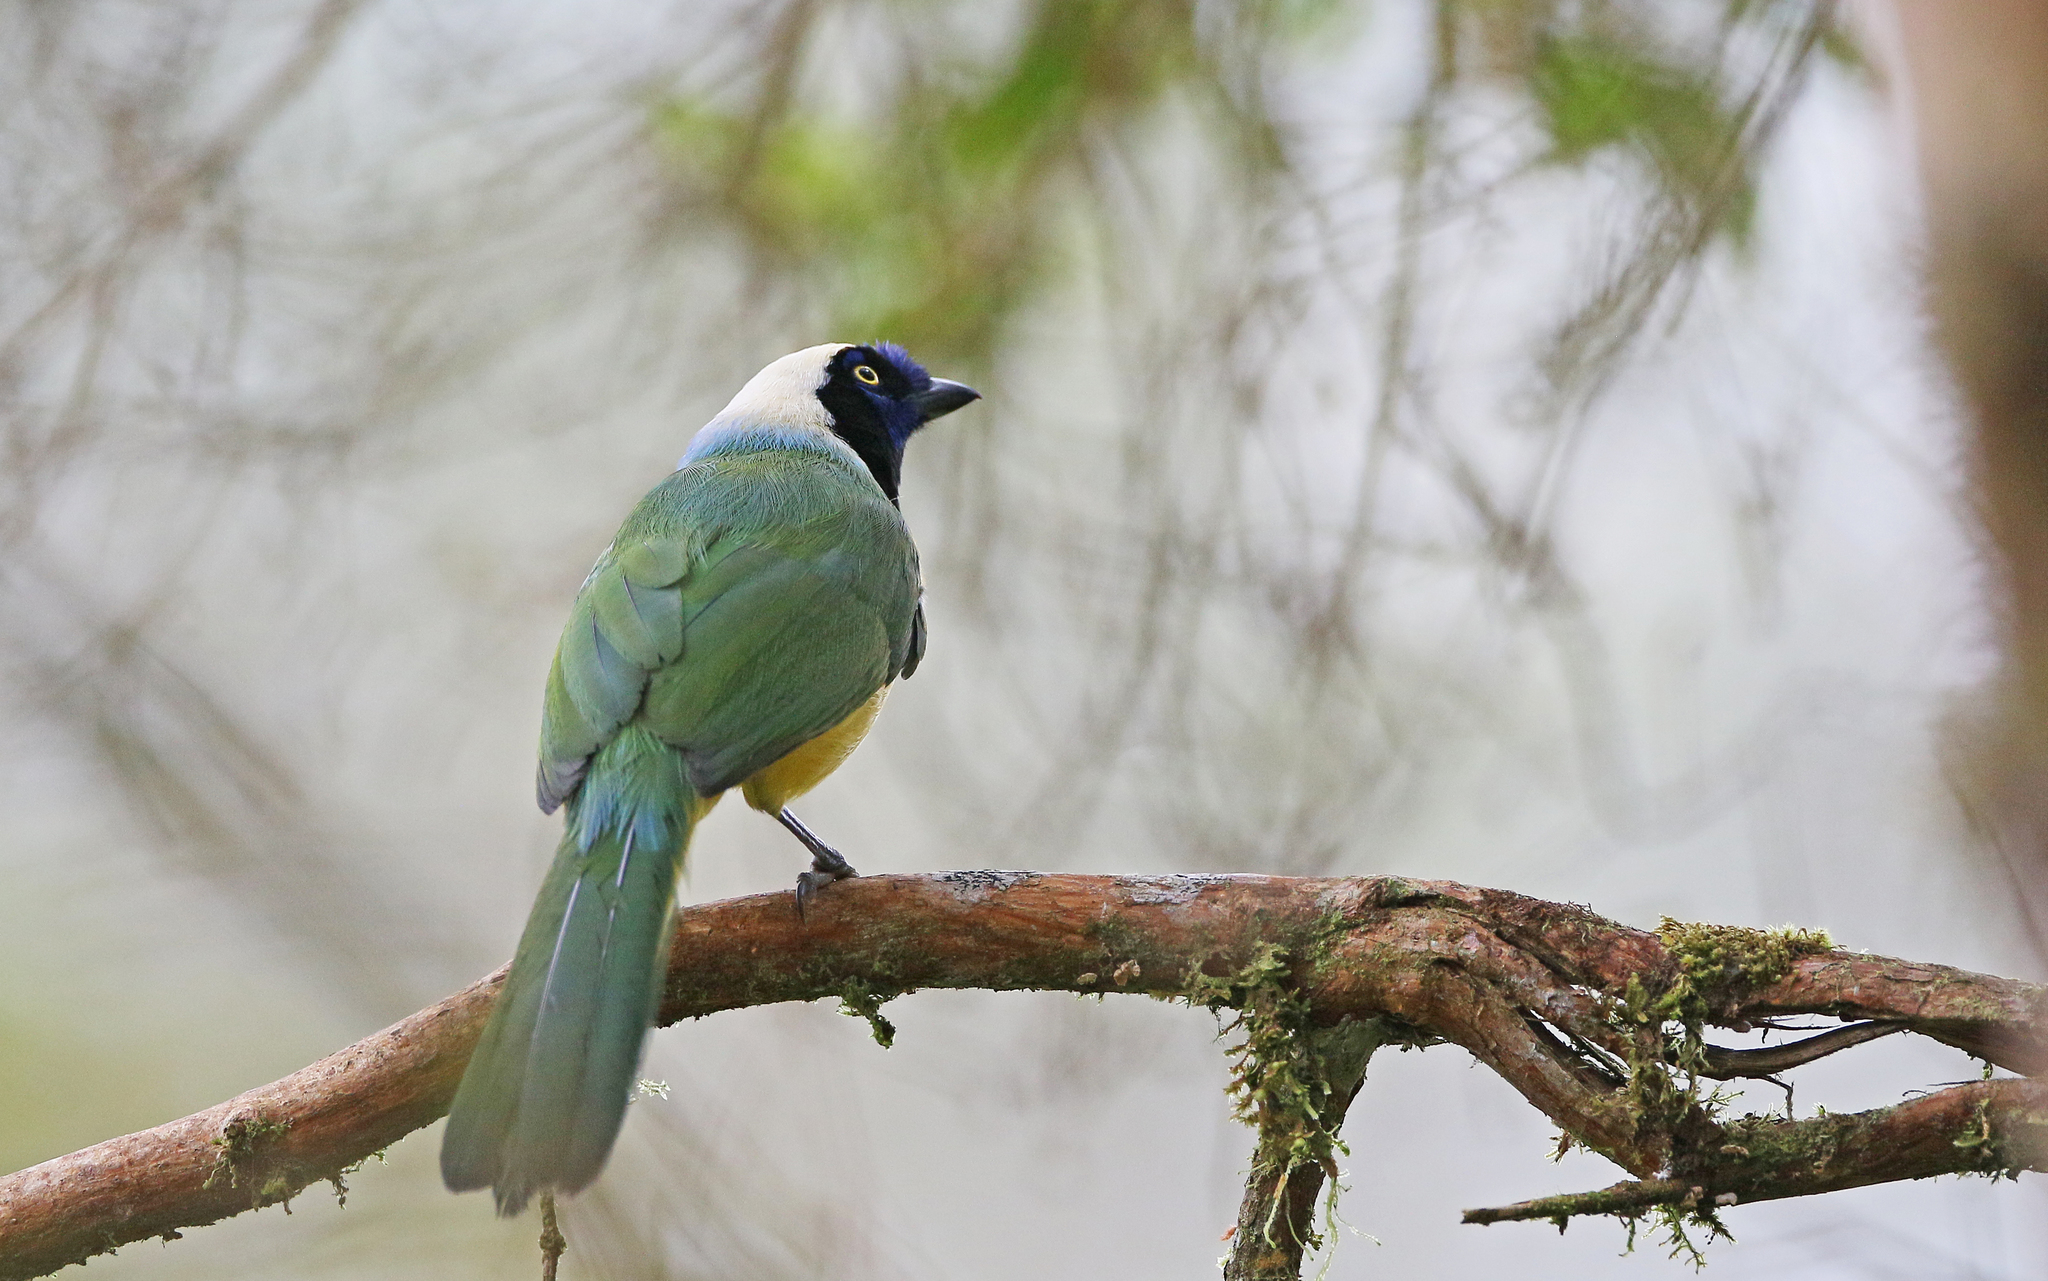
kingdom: Animalia
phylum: Chordata
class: Aves
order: Passeriformes
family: Corvidae
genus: Cyanocorax
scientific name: Cyanocorax yncas
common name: Green jay
